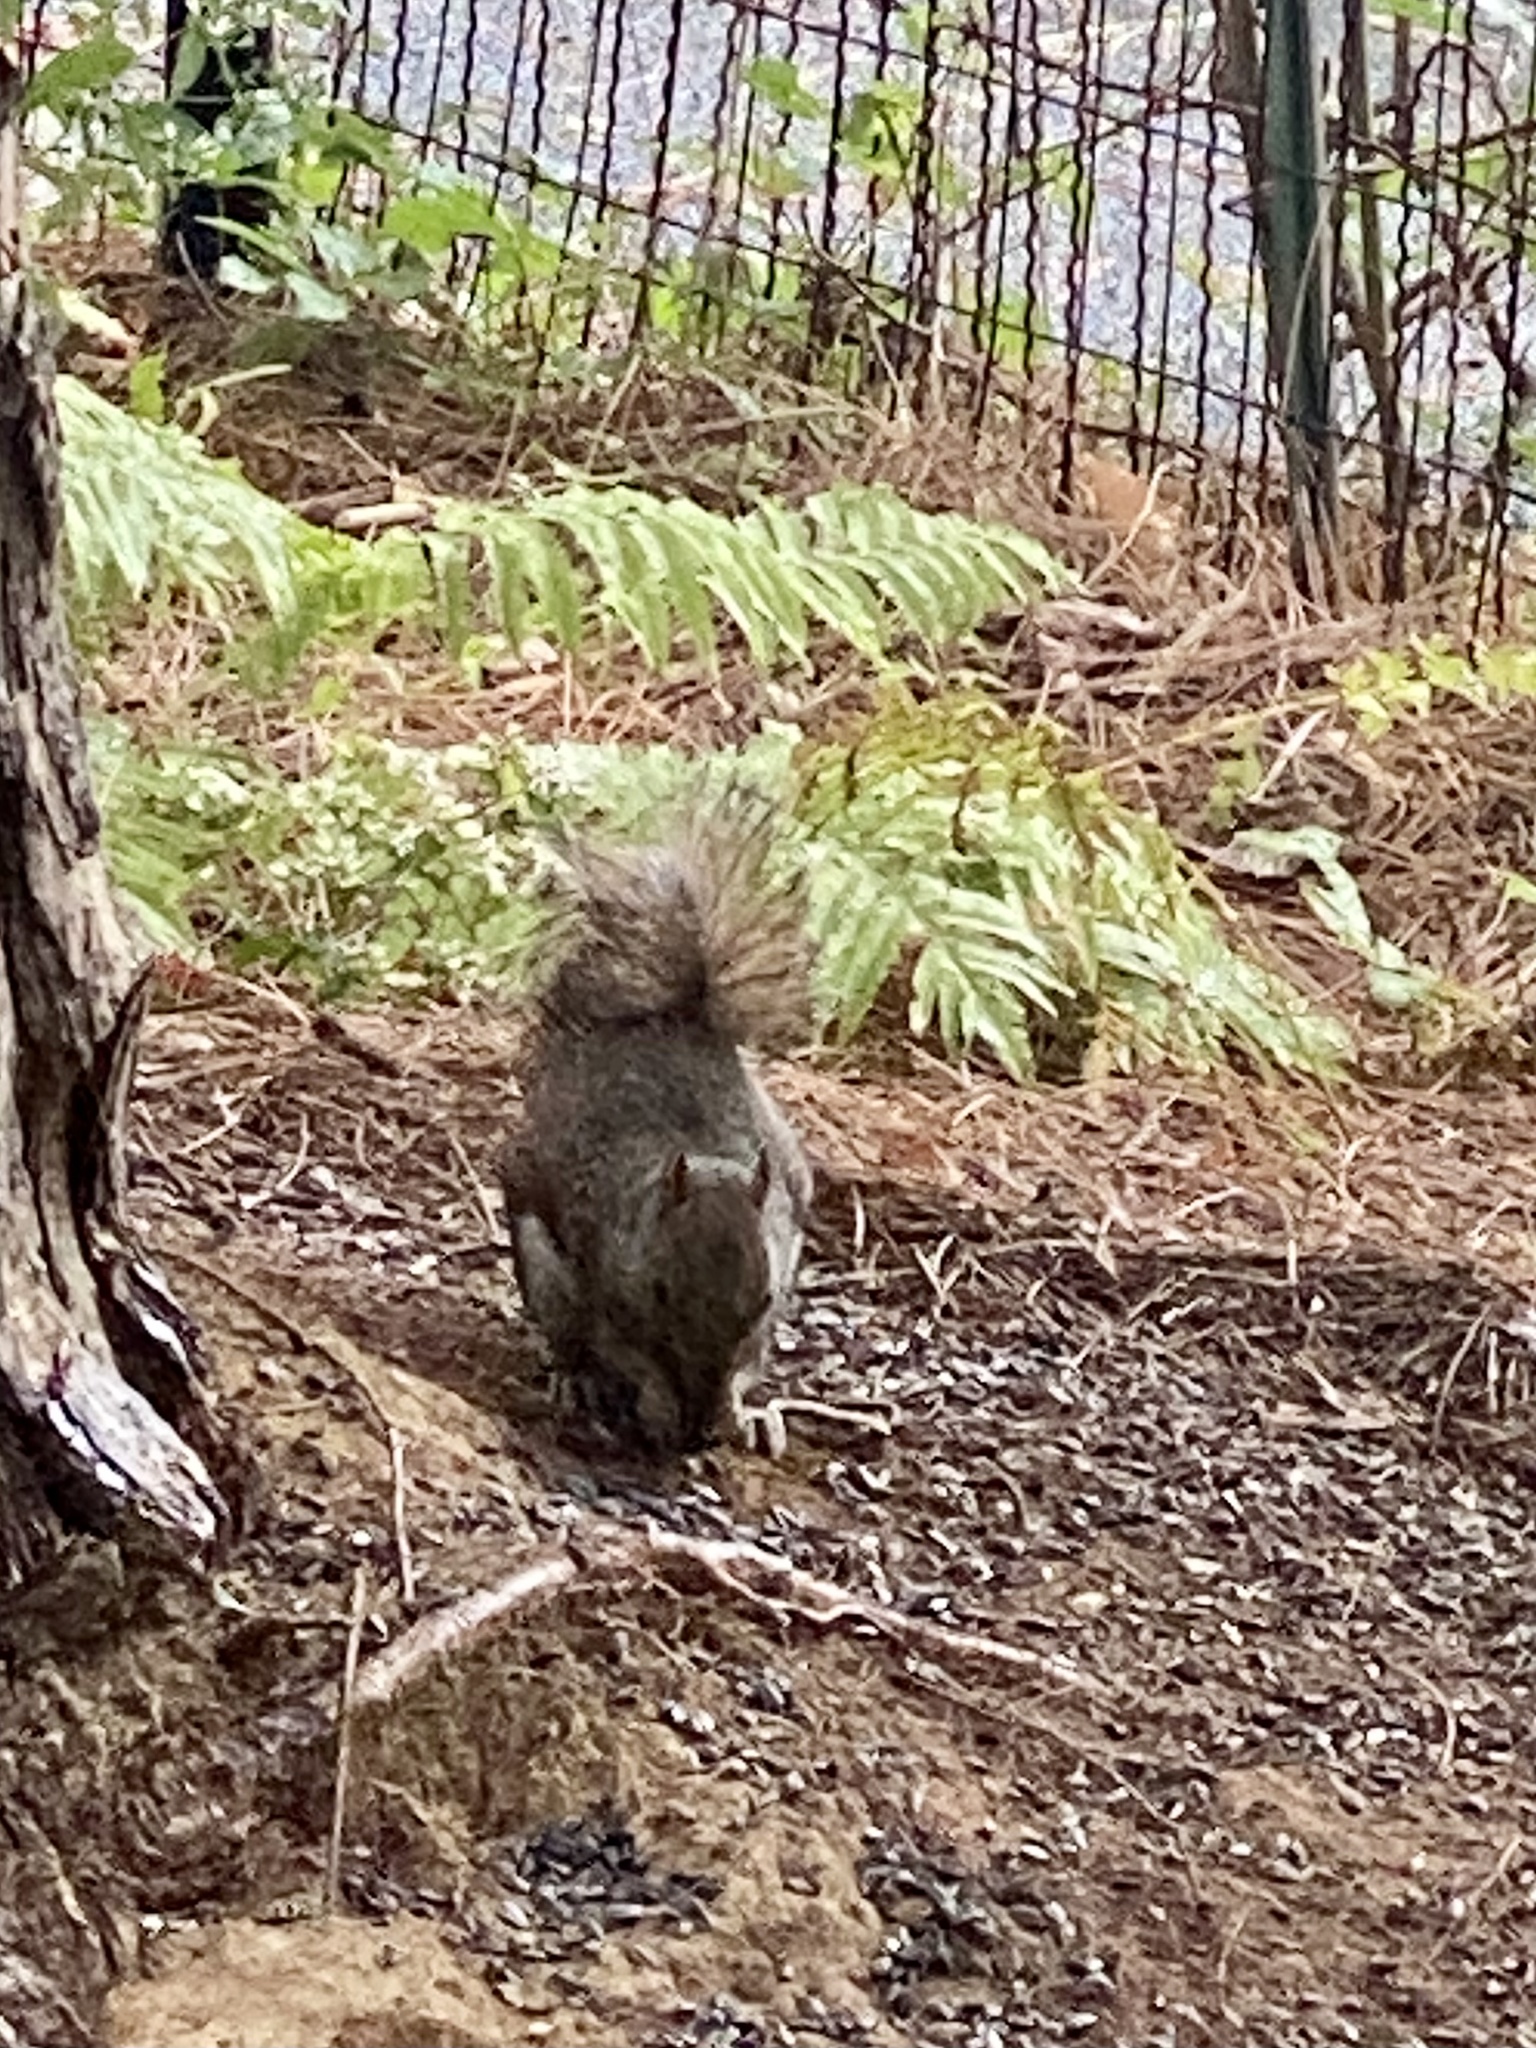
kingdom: Animalia
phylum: Chordata
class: Mammalia
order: Rodentia
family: Sciuridae
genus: Sciurus
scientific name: Sciurus carolinensis
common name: Eastern gray squirrel
